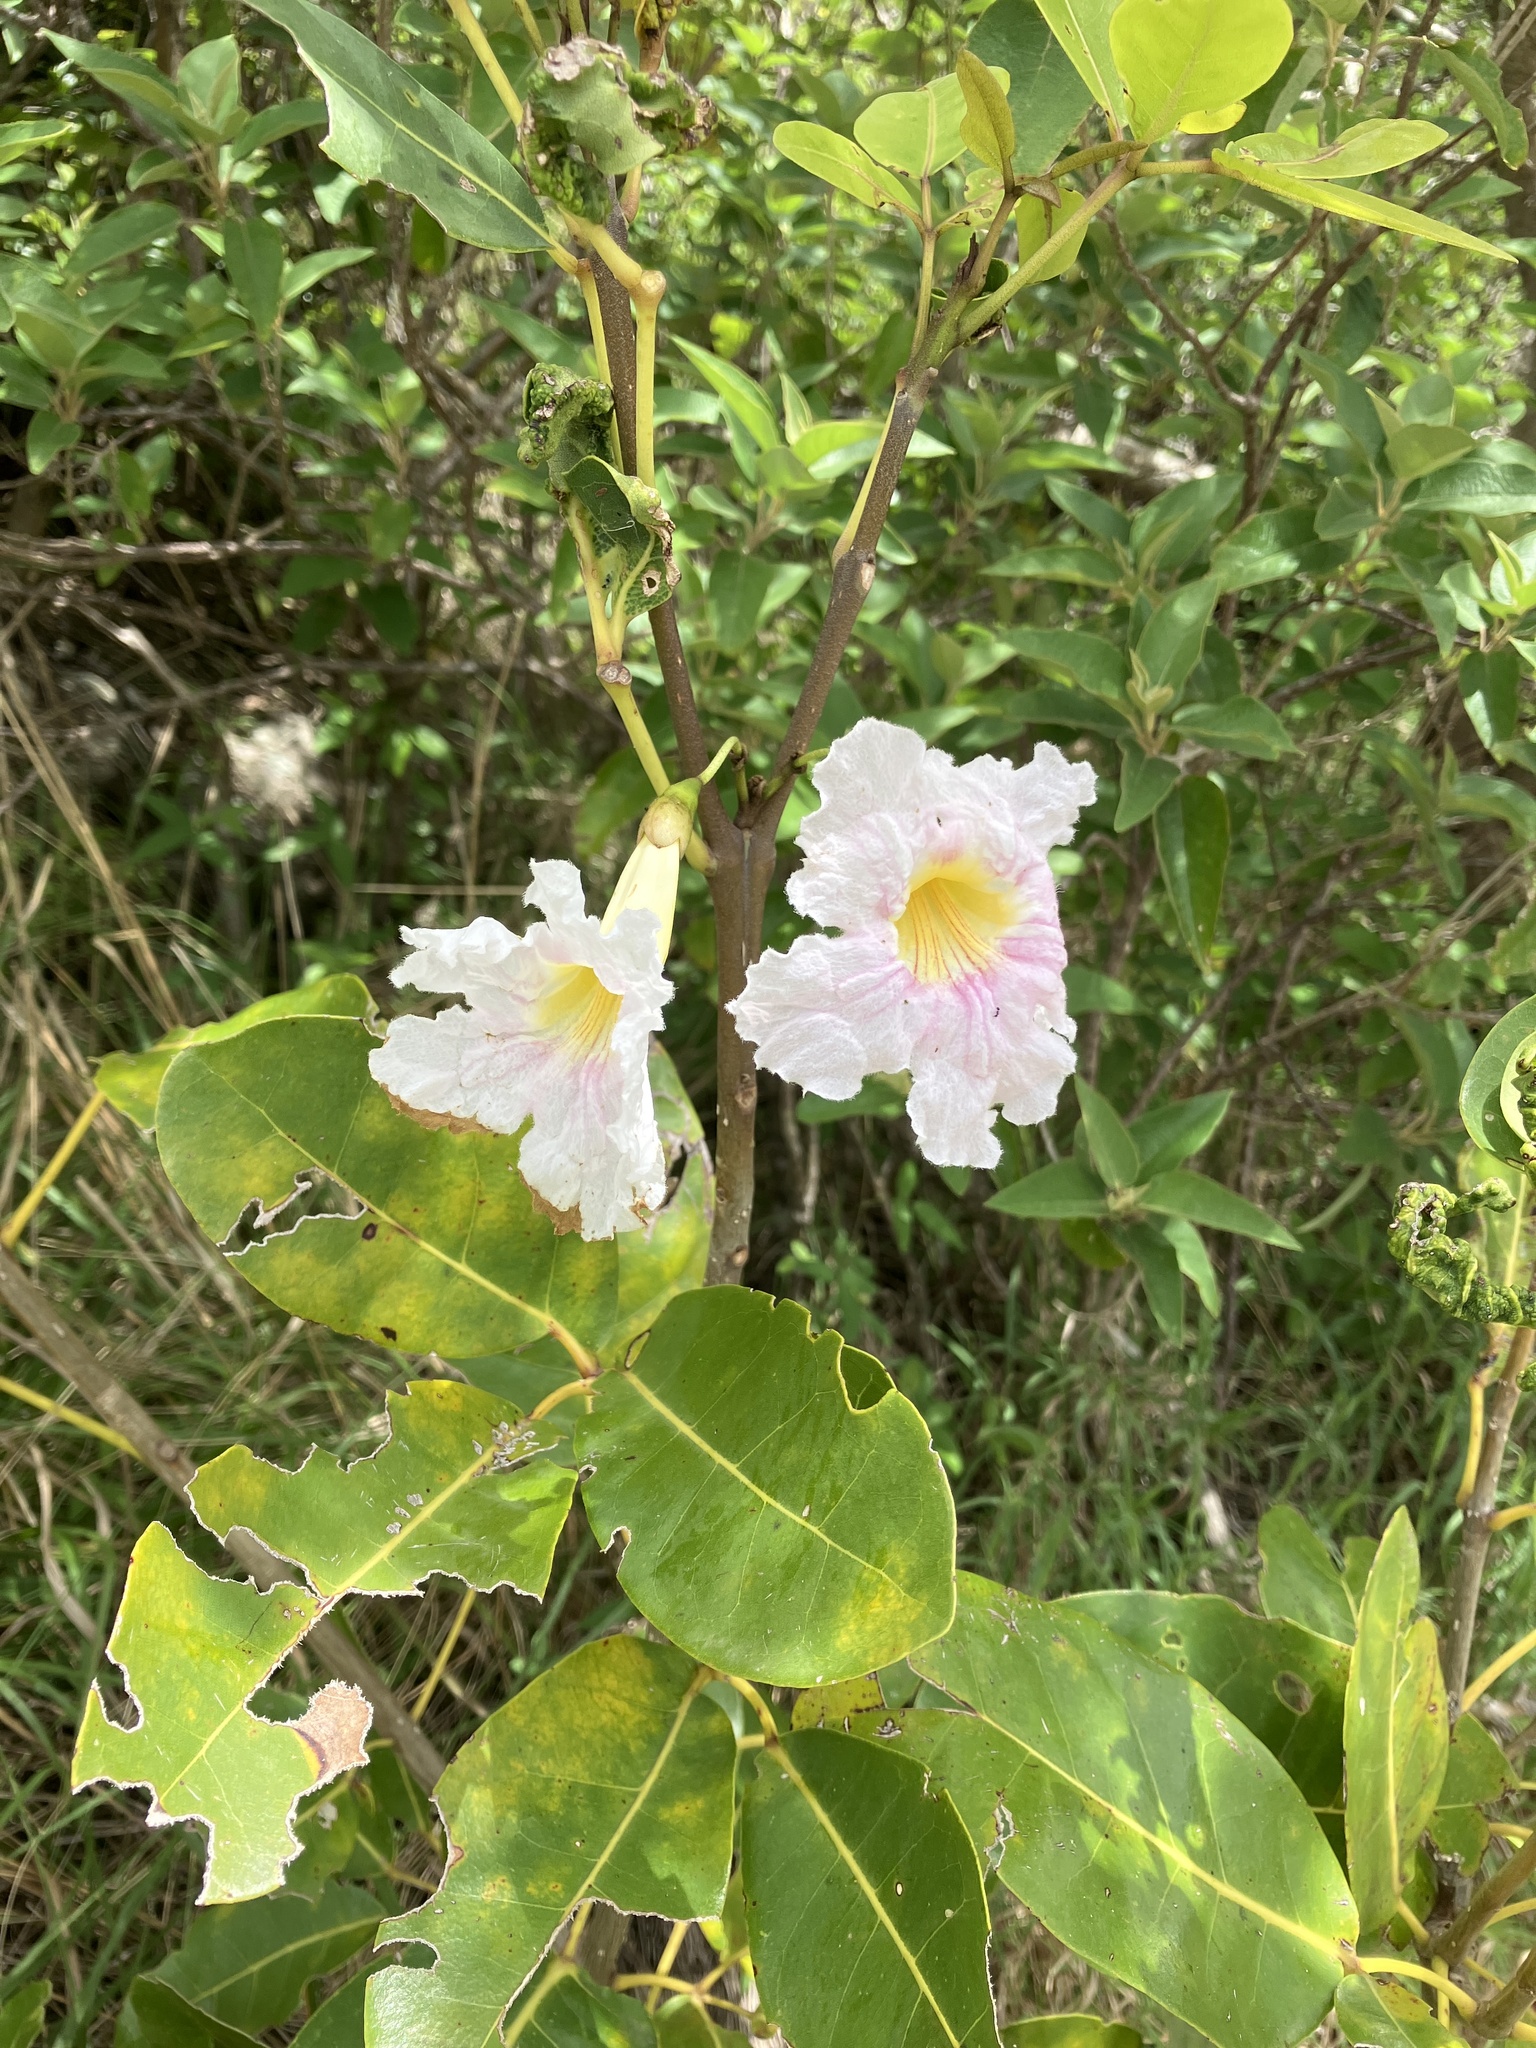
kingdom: Plantae
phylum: Tracheophyta
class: Magnoliopsida
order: Lamiales
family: Bignoniaceae
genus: Tabebuia
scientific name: Tabebuia heterophylla
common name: White cedar
